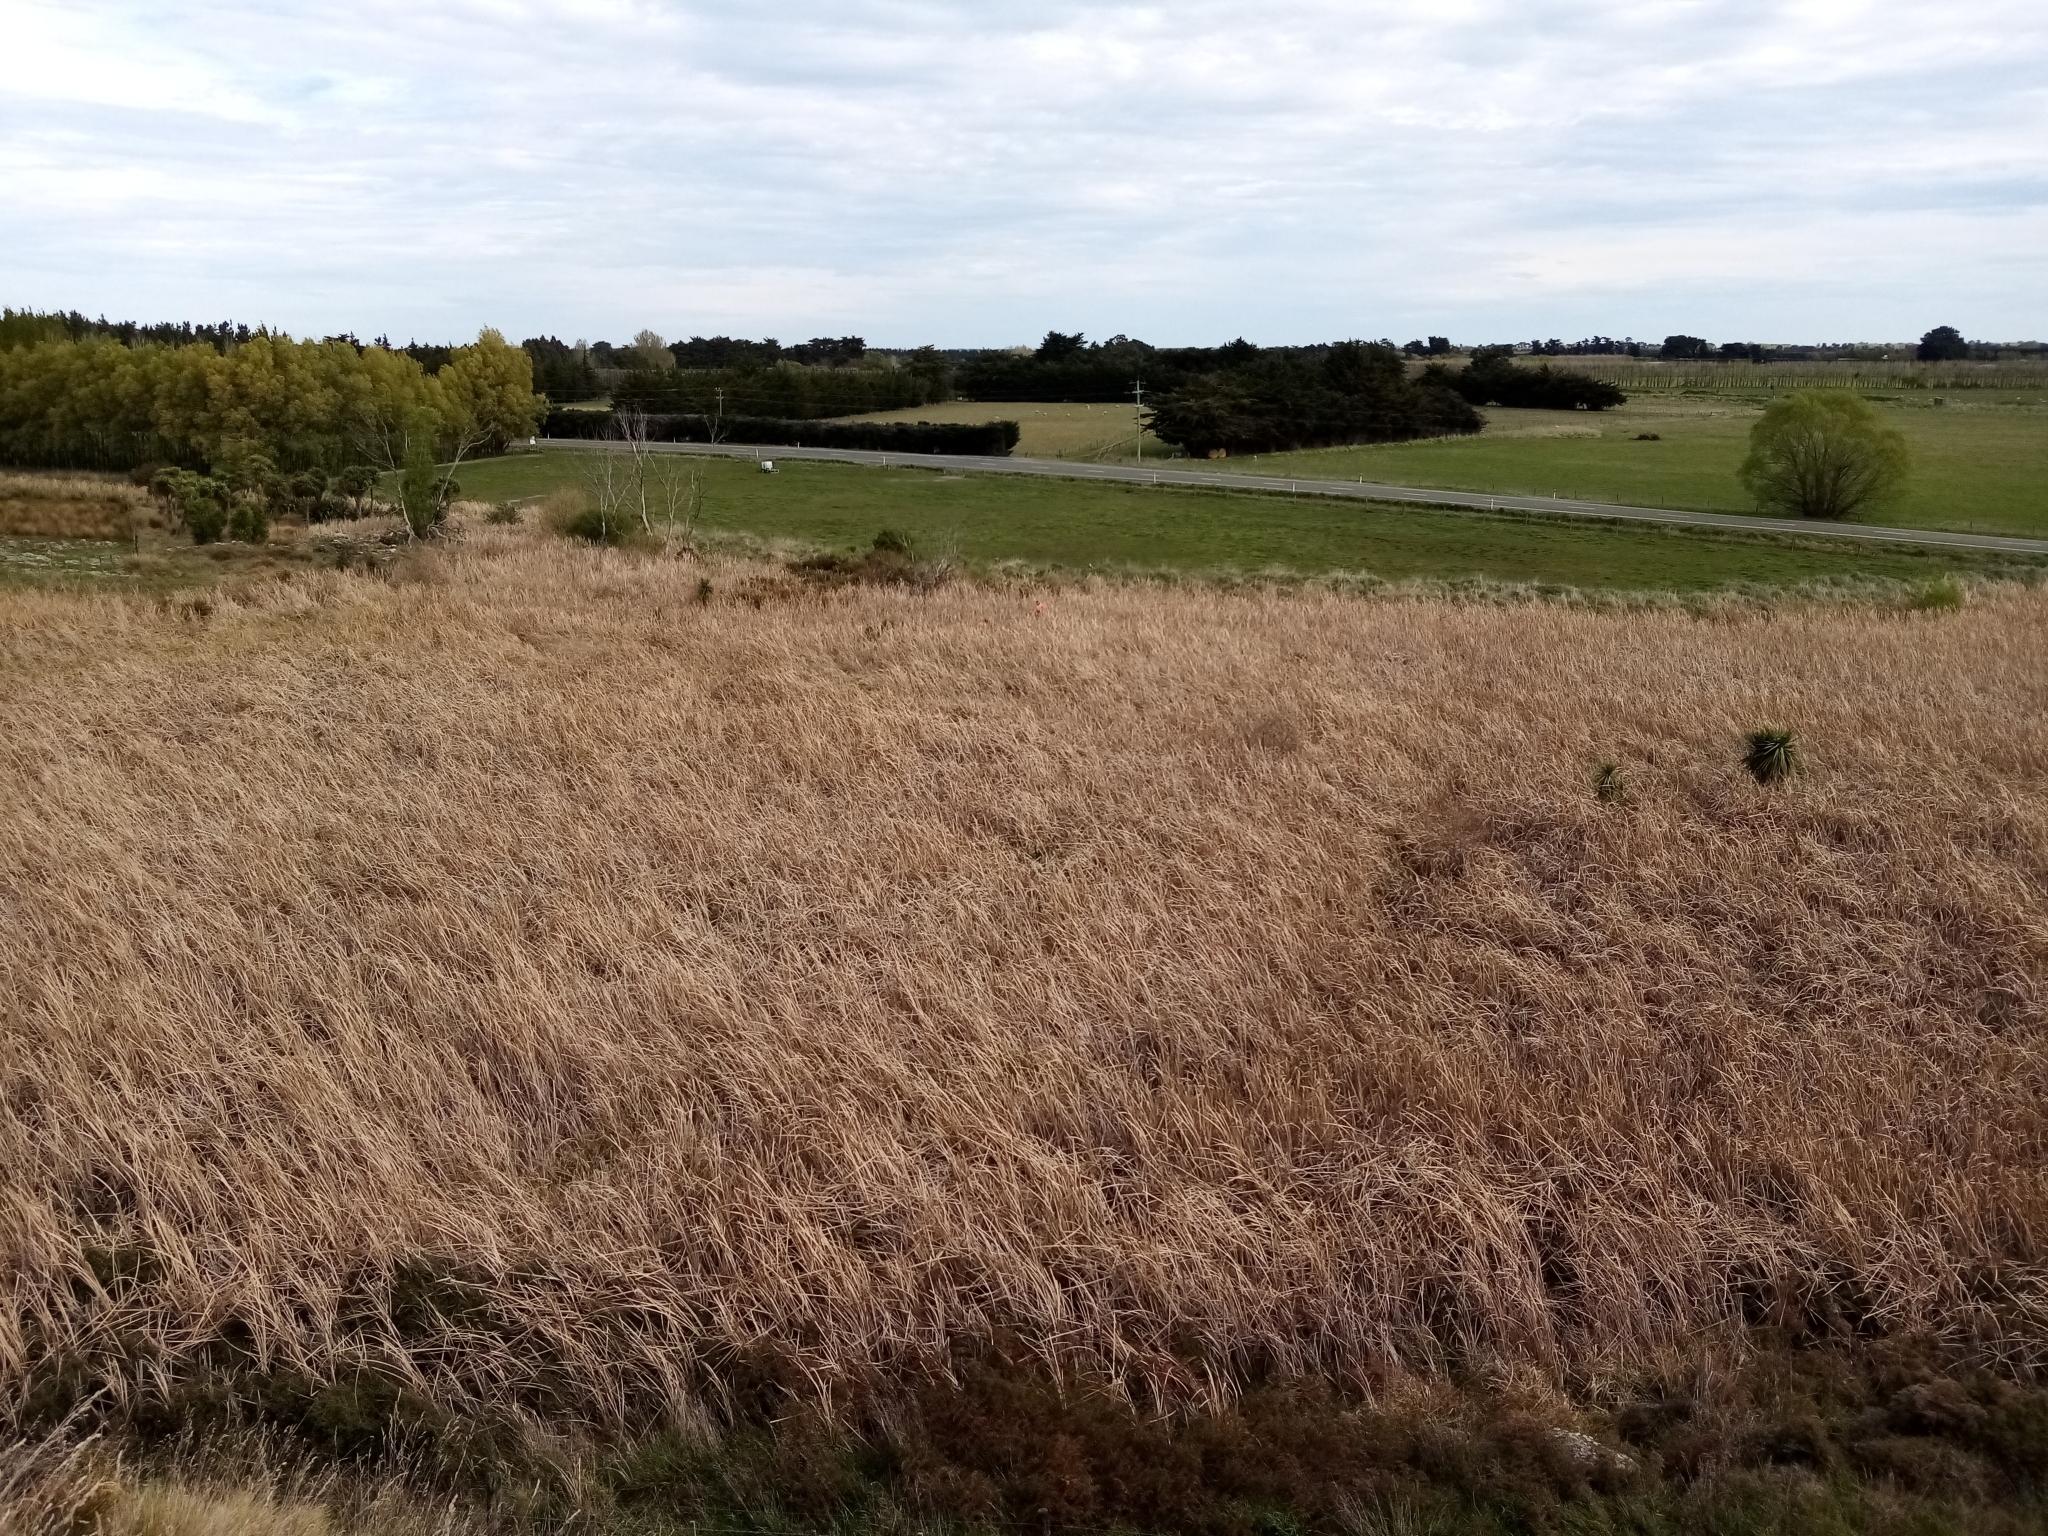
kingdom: Plantae
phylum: Tracheophyta
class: Liliopsida
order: Poales
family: Typhaceae
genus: Typha
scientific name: Typha orientalis
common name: Bullrush
